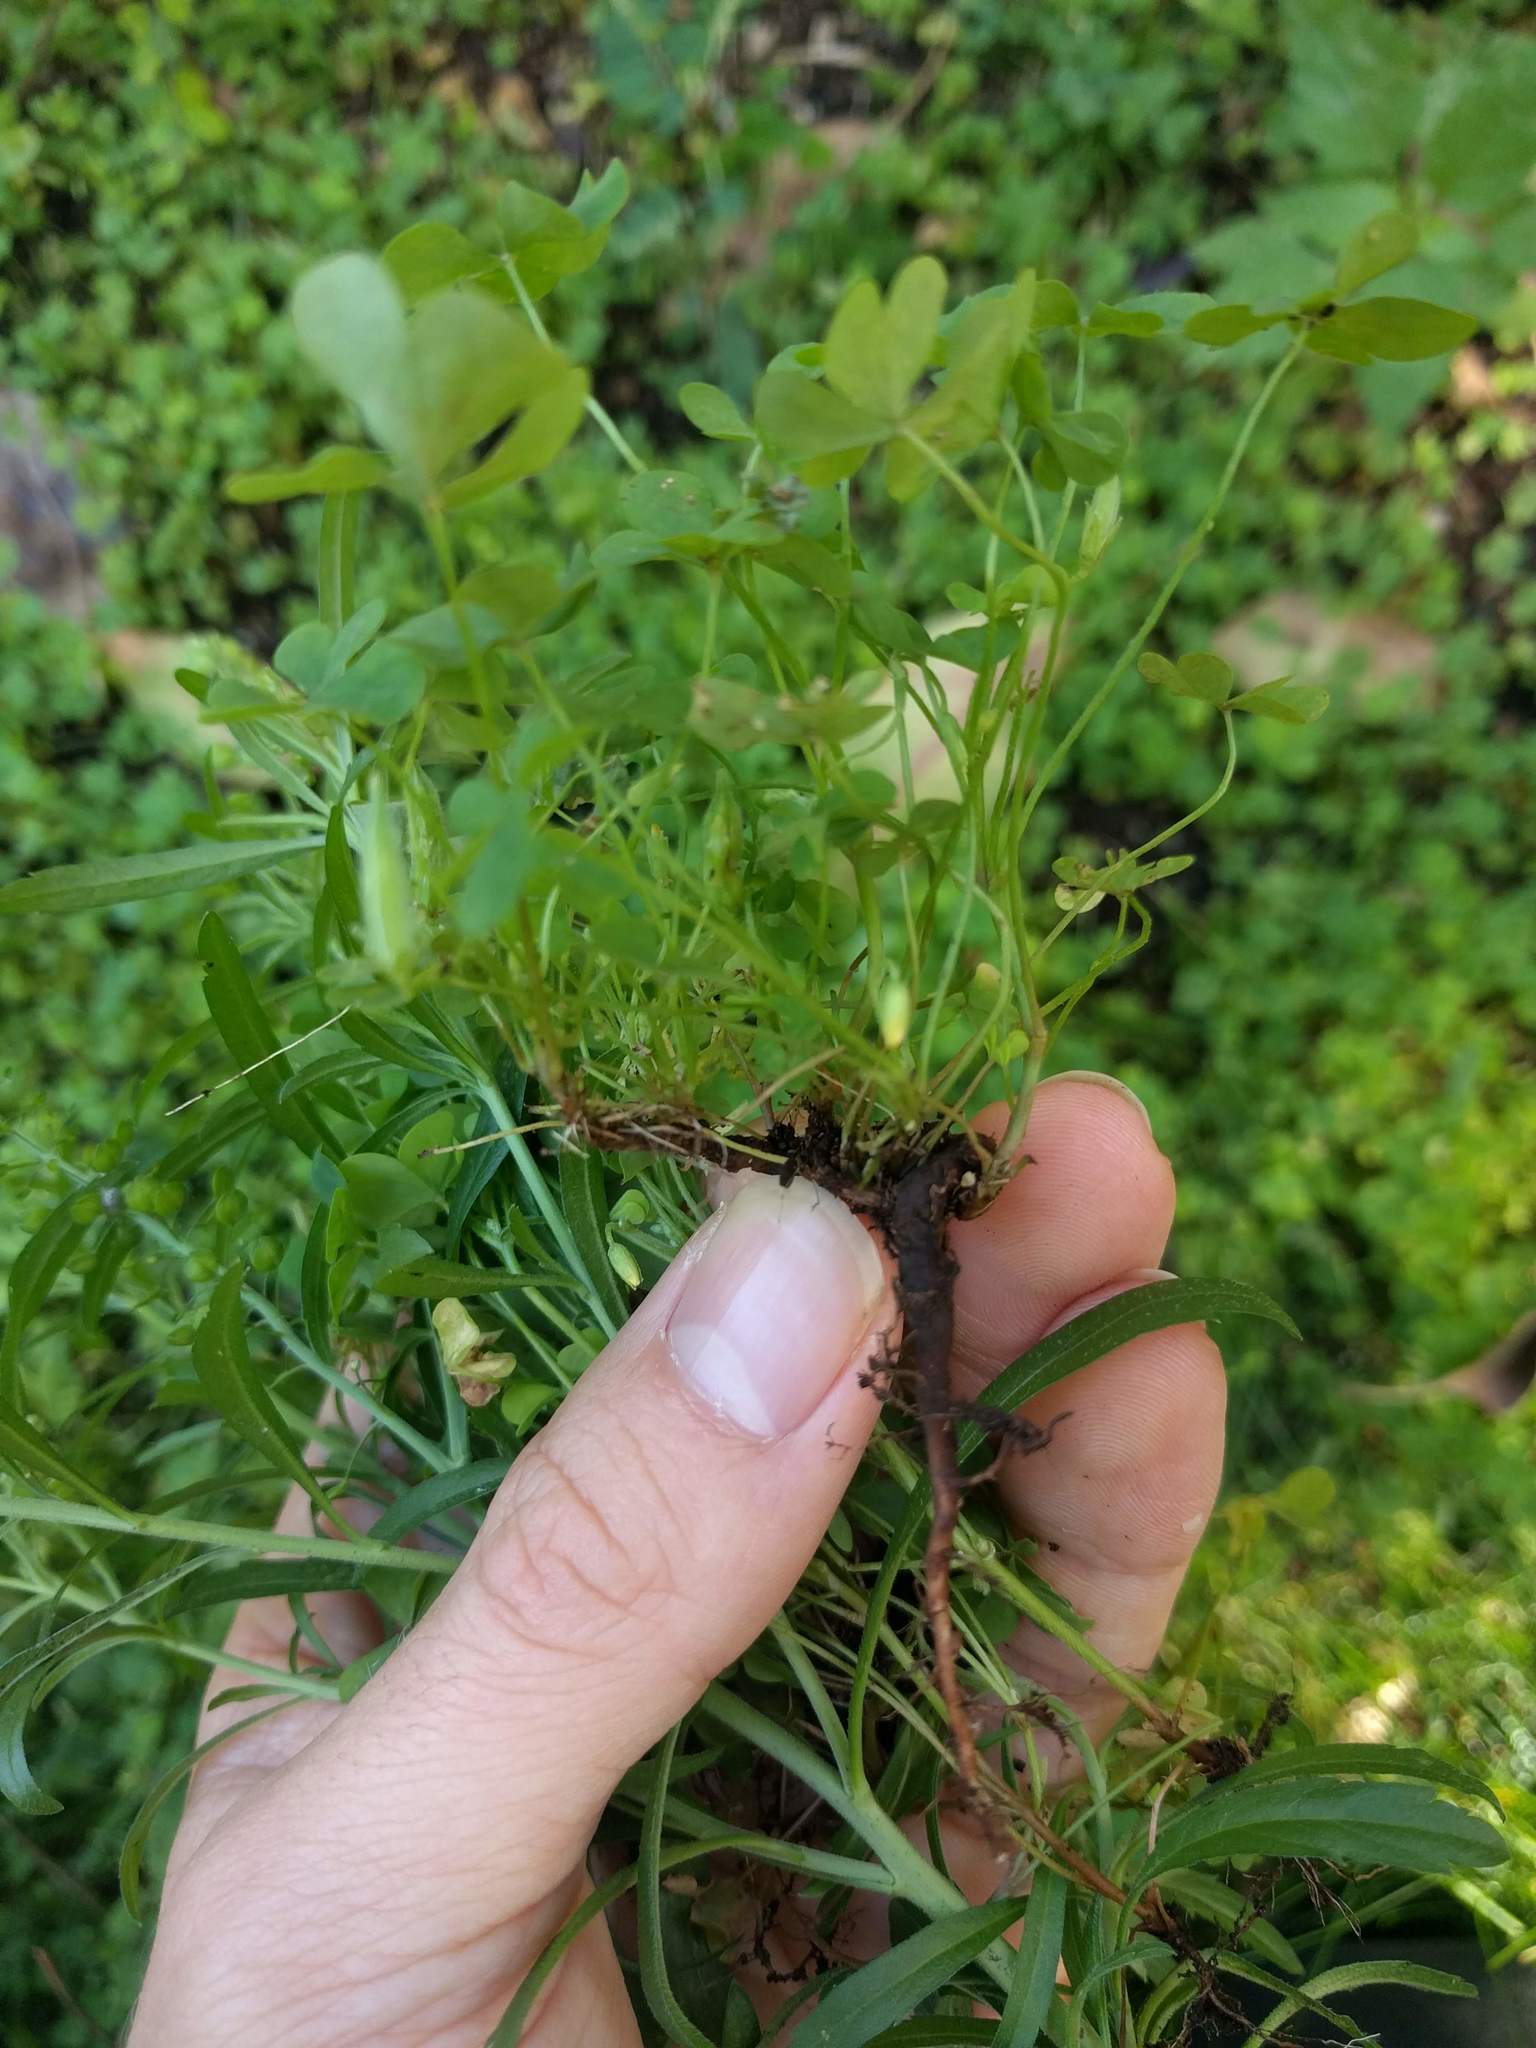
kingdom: Plantae
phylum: Tracheophyta
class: Magnoliopsida
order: Oxalidales
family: Oxalidaceae
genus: Oxalis
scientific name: Oxalis corniculata
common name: Procumbent yellow-sorrel
